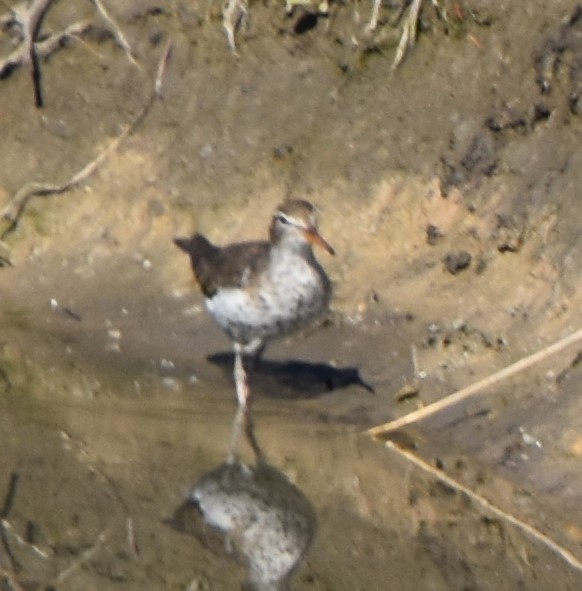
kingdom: Animalia
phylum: Chordata
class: Aves
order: Charadriiformes
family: Scolopacidae
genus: Actitis
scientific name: Actitis macularius
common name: Spotted sandpiper
